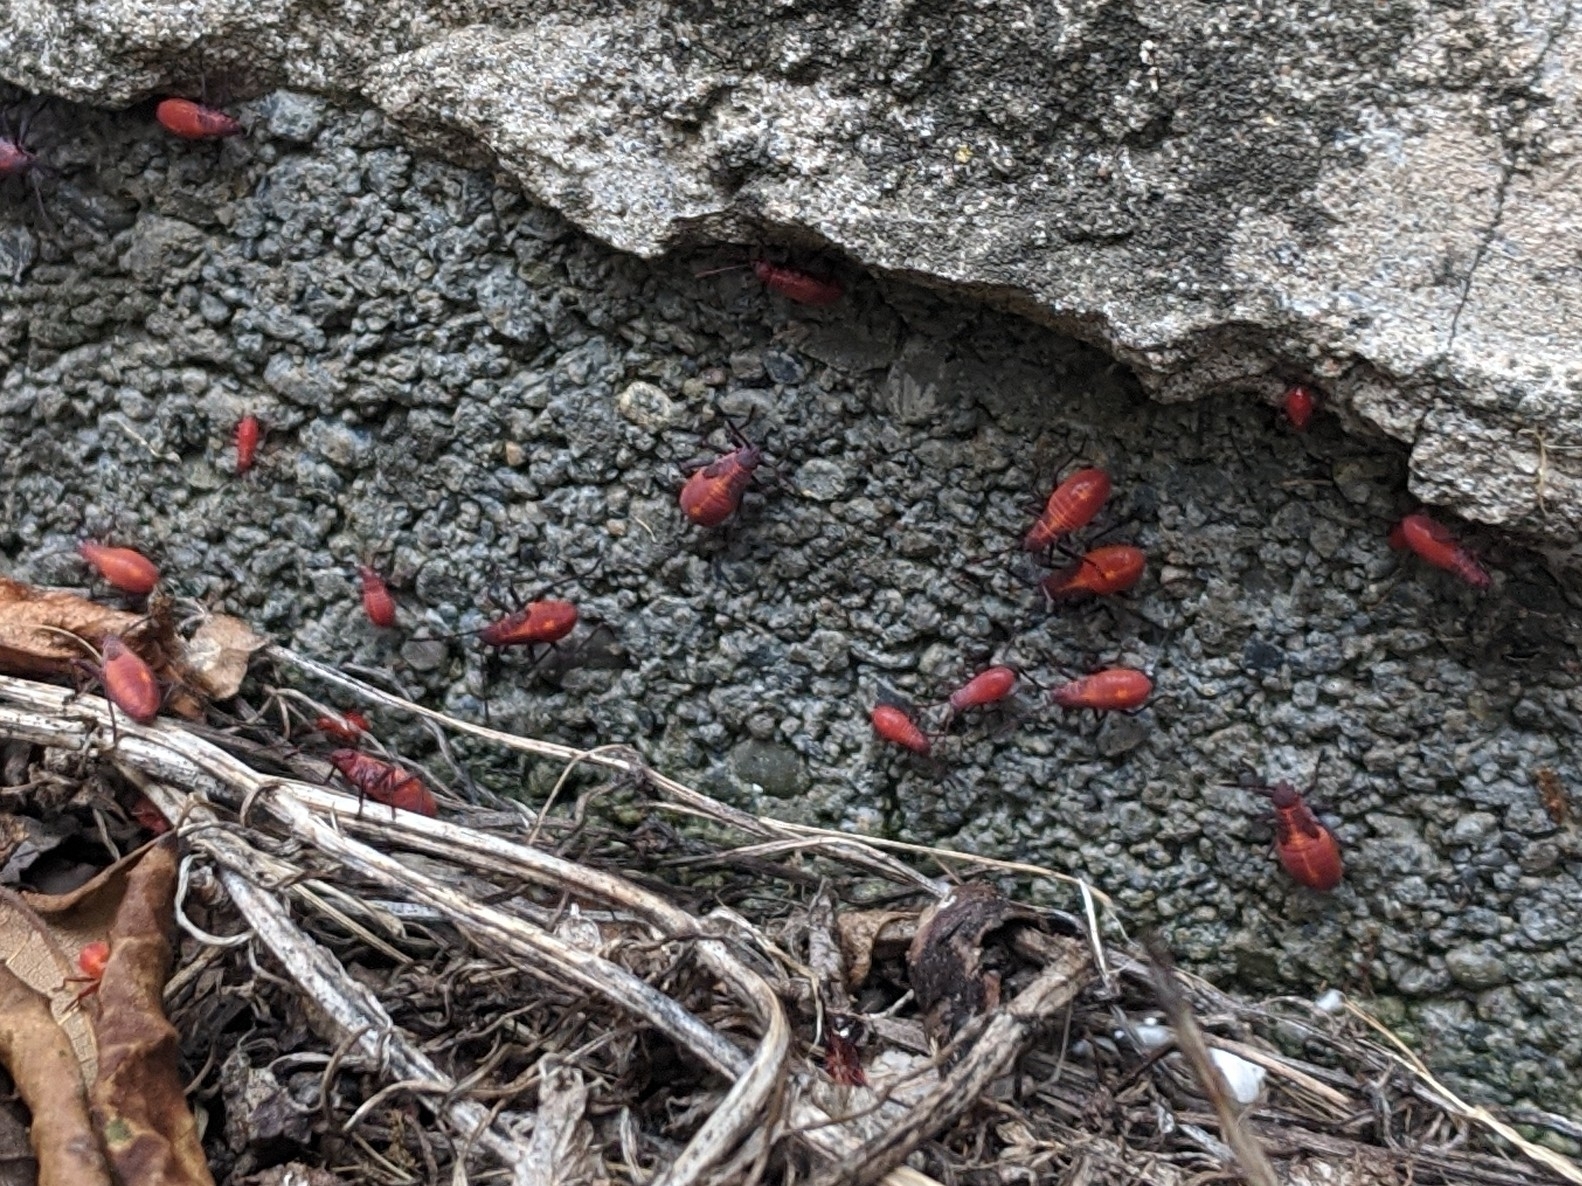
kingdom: Animalia
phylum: Arthropoda
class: Insecta
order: Hemiptera
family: Rhopalidae
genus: Boisea
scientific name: Boisea trivittata
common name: Boxelder bug
